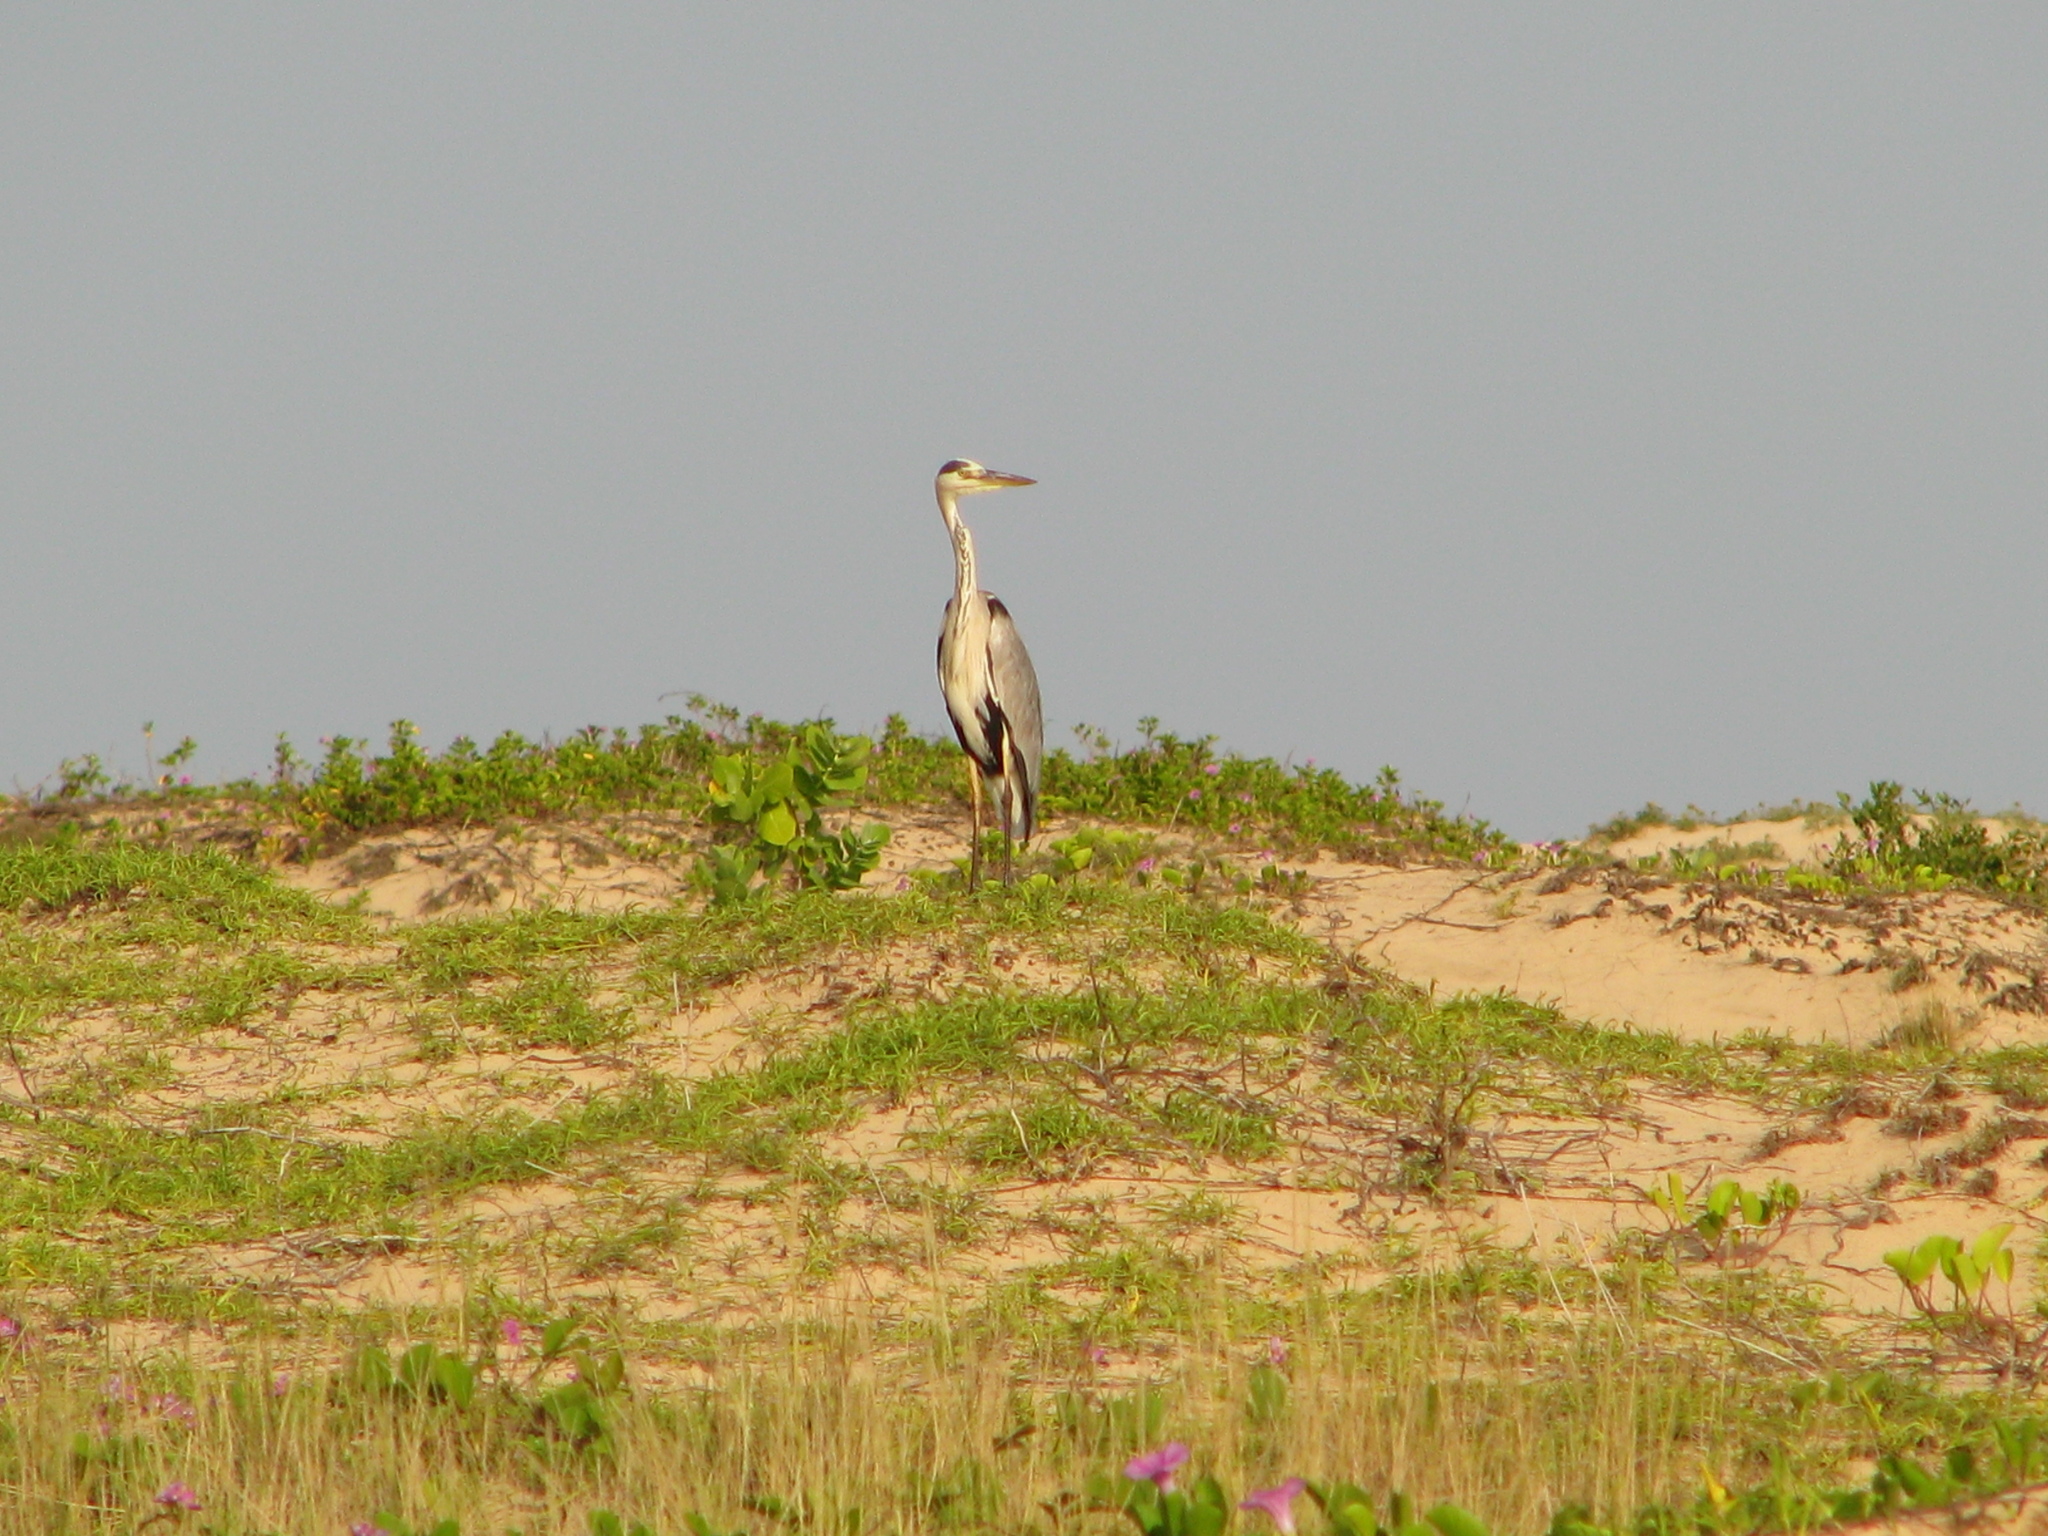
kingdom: Animalia
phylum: Chordata
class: Aves
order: Pelecaniformes
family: Ardeidae
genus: Ardea
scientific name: Ardea cinerea
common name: Grey heron
